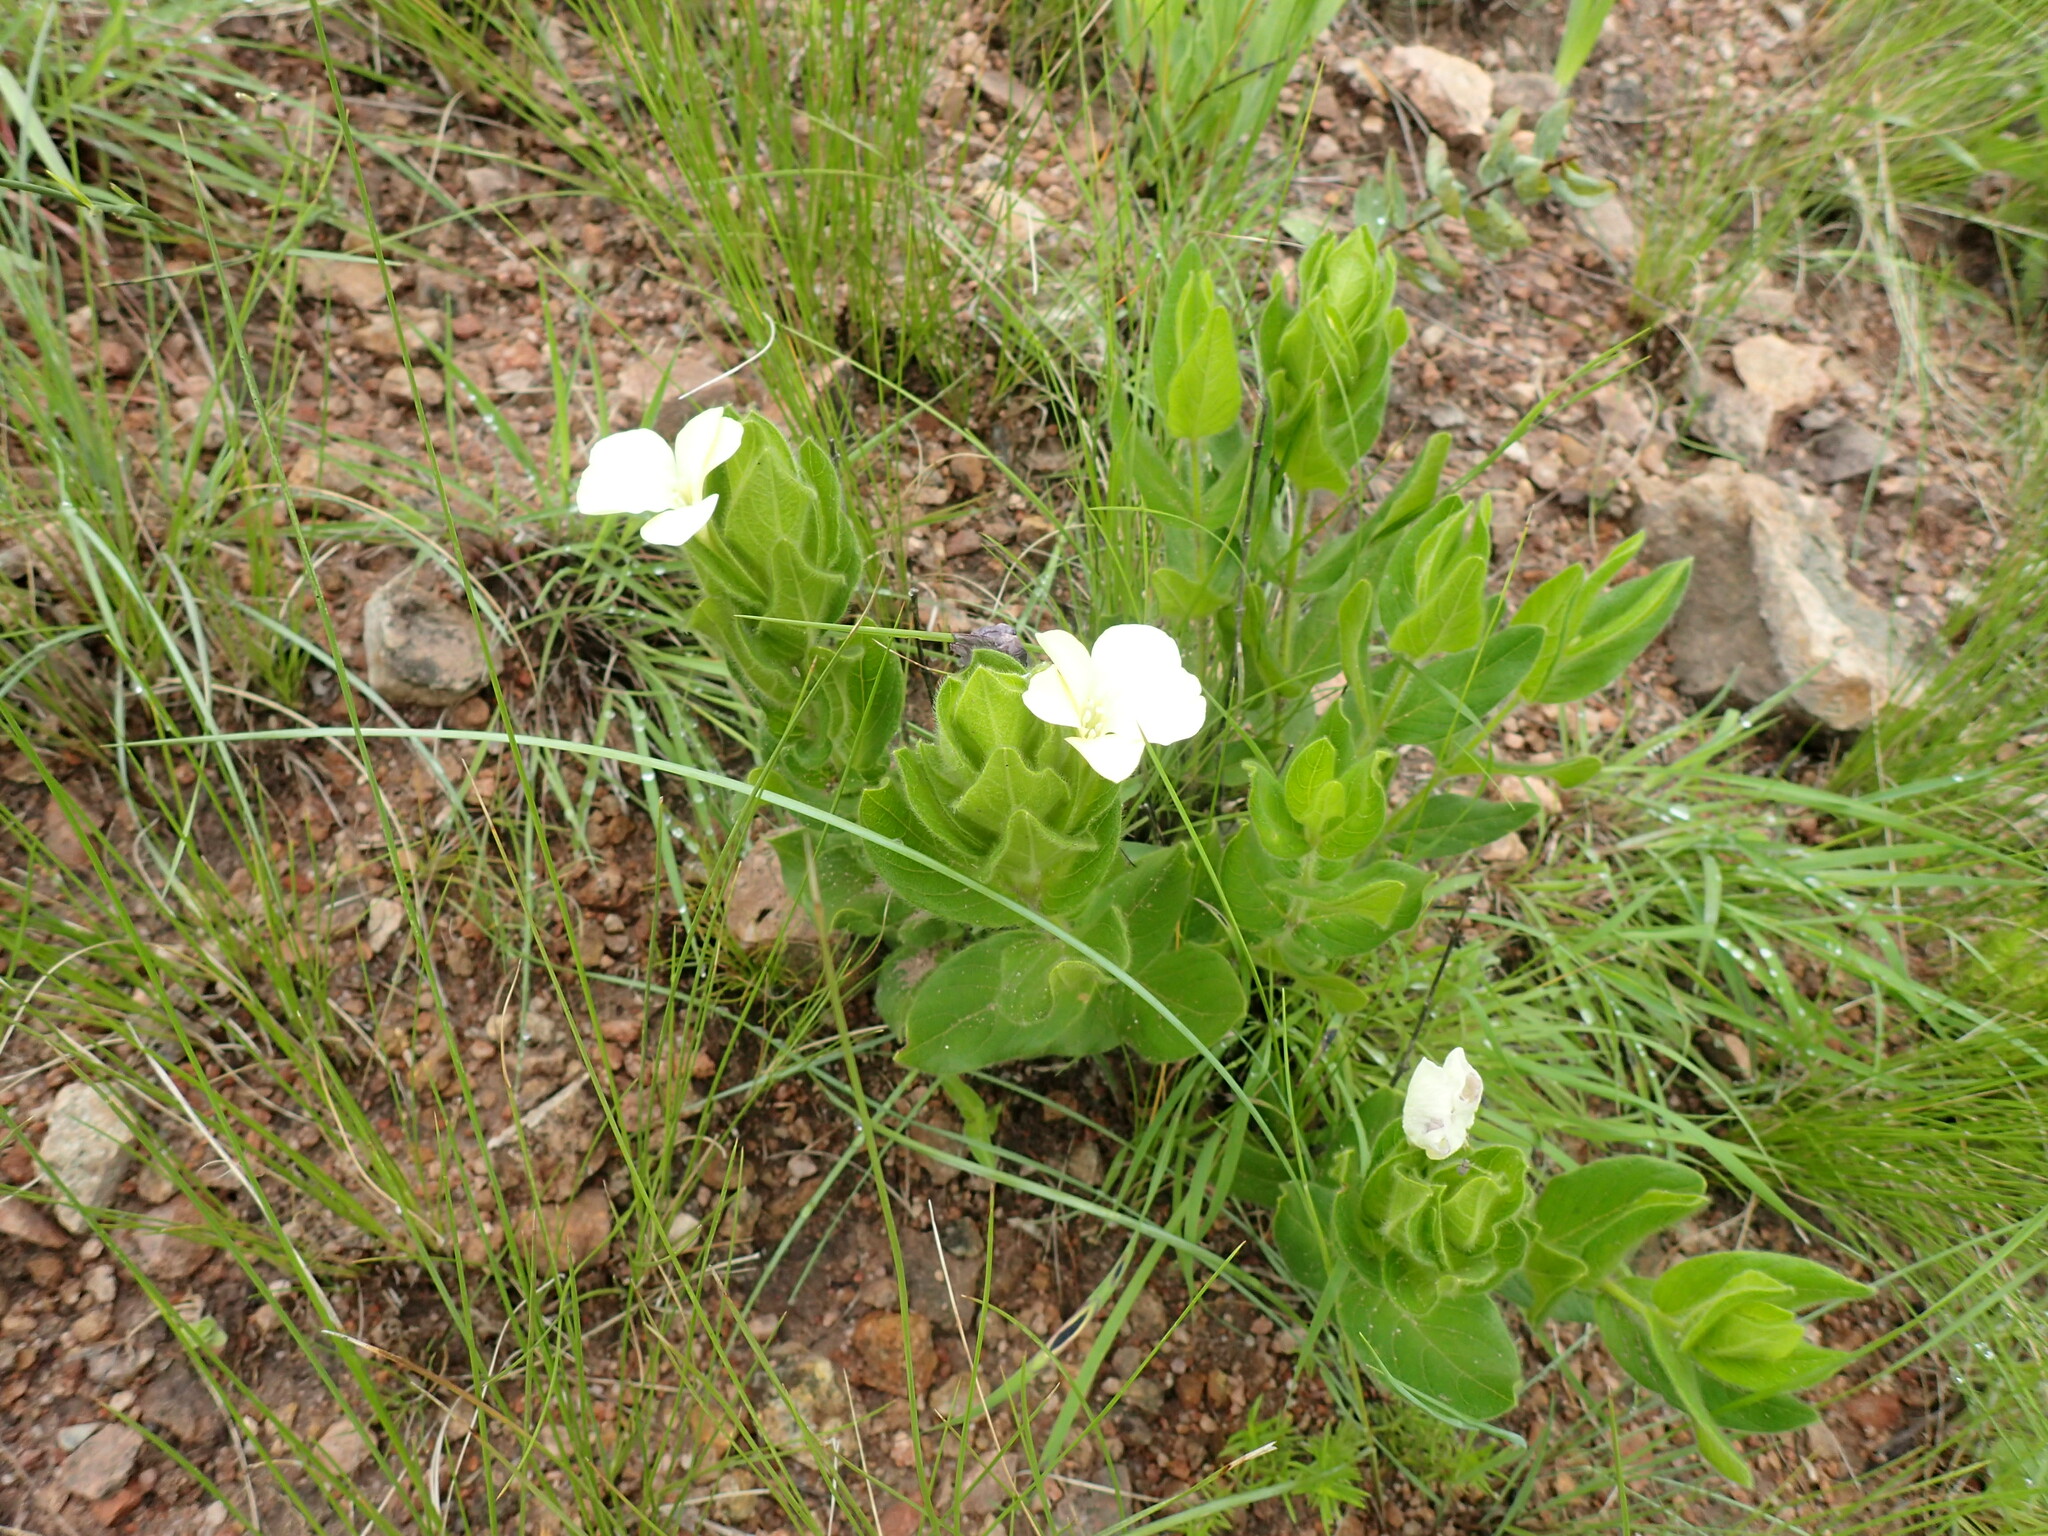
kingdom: Plantae
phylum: Tracheophyta
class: Magnoliopsida
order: Lamiales
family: Acanthaceae
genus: Thunbergia
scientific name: Thunbergia atriplicifolia
